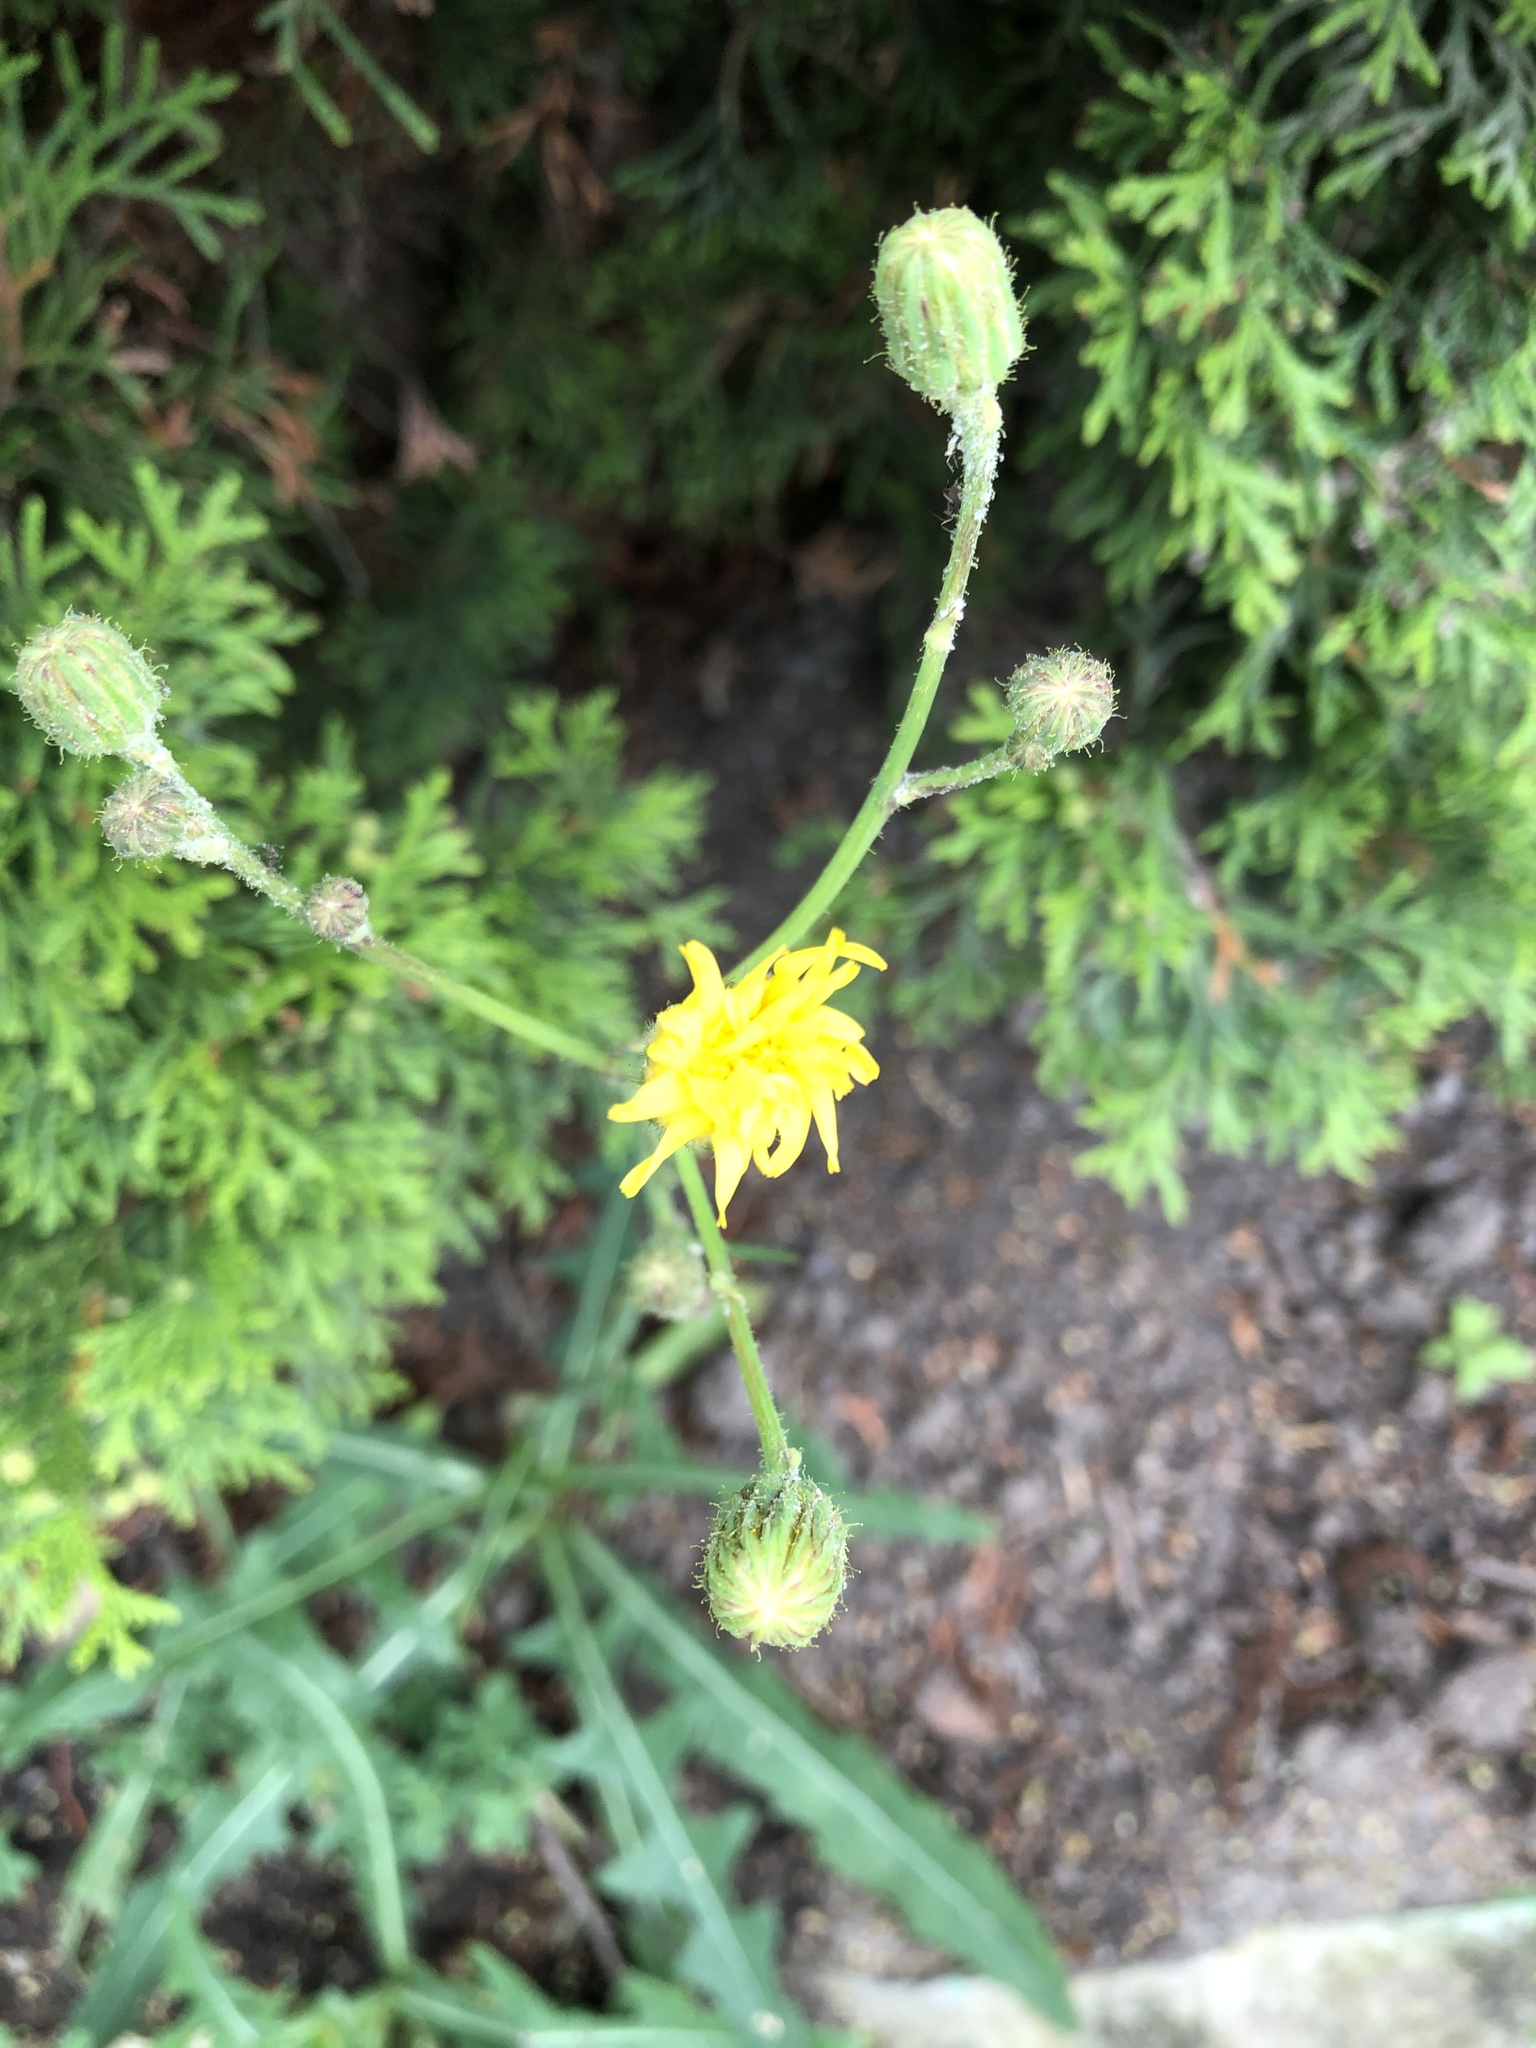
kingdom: Plantae
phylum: Tracheophyta
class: Magnoliopsida
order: Asterales
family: Asteraceae
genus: Sonchus
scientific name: Sonchus arvensis
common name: Perennial sow-thistle
